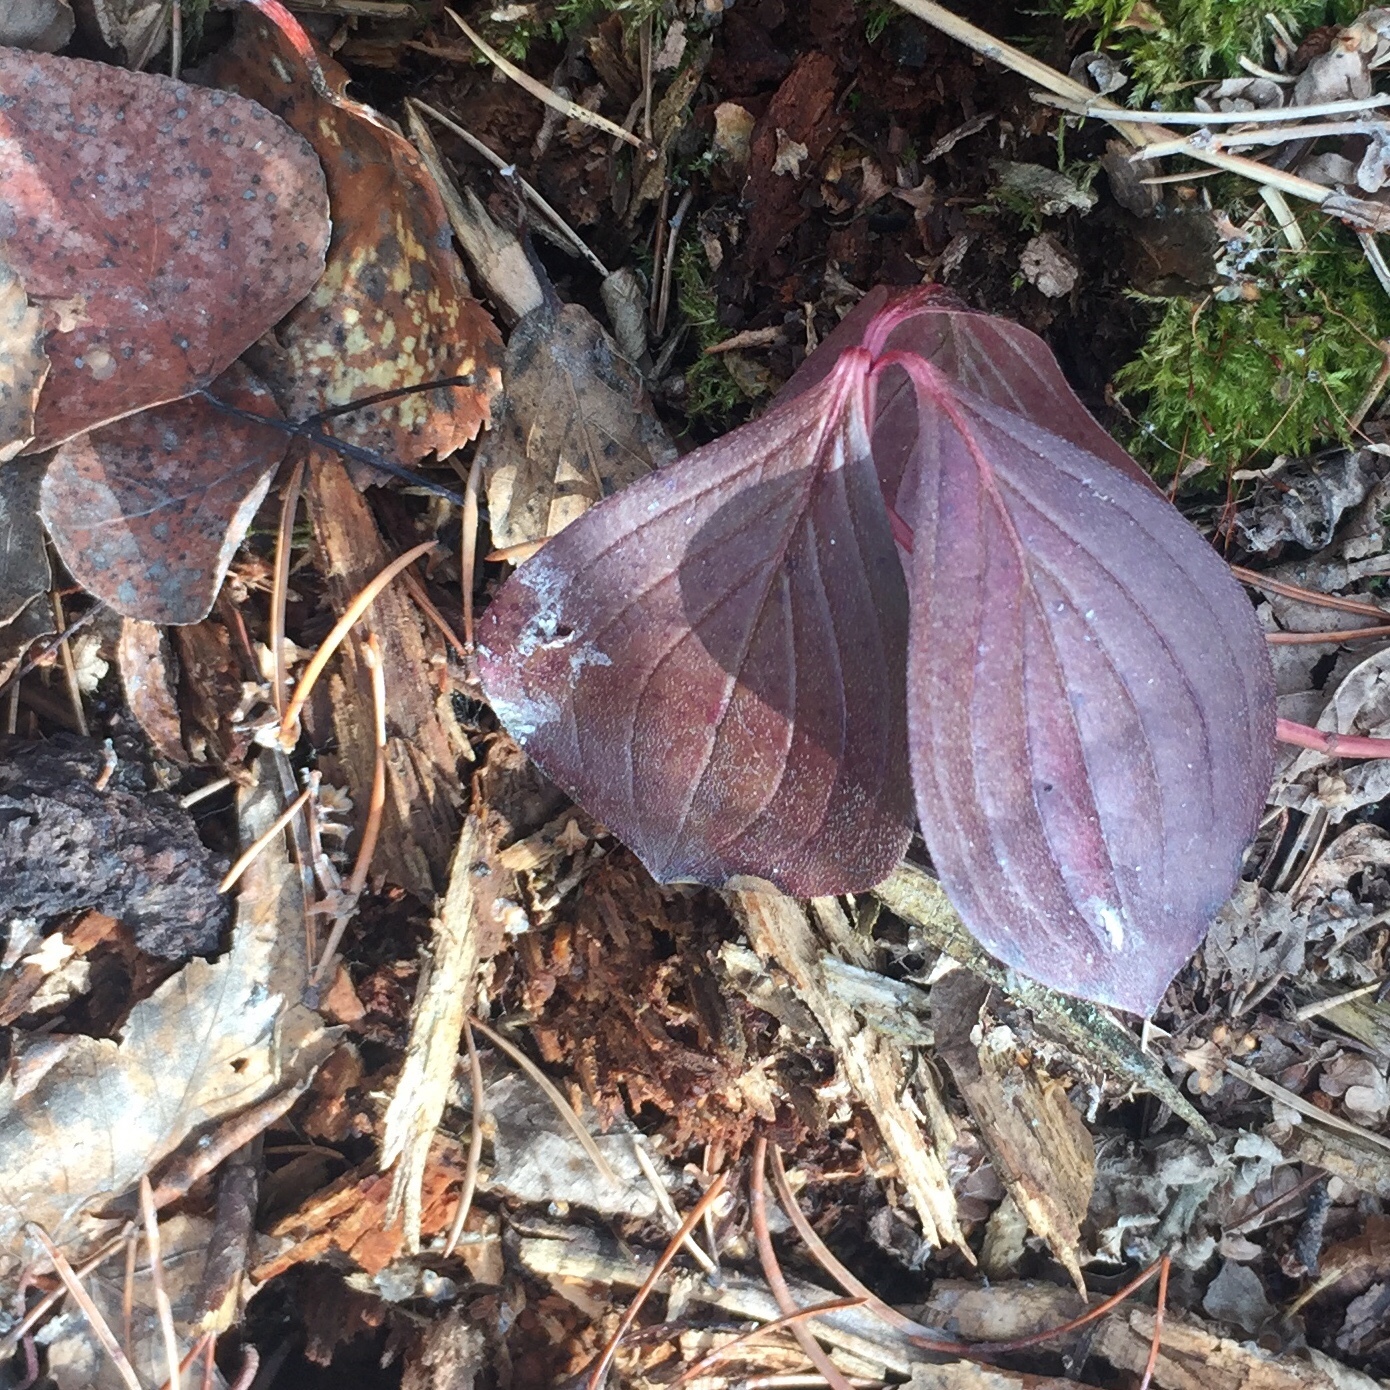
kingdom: Plantae
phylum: Tracheophyta
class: Magnoliopsida
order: Cornales
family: Cornaceae
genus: Cornus
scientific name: Cornus canadensis
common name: Creeping dogwood
